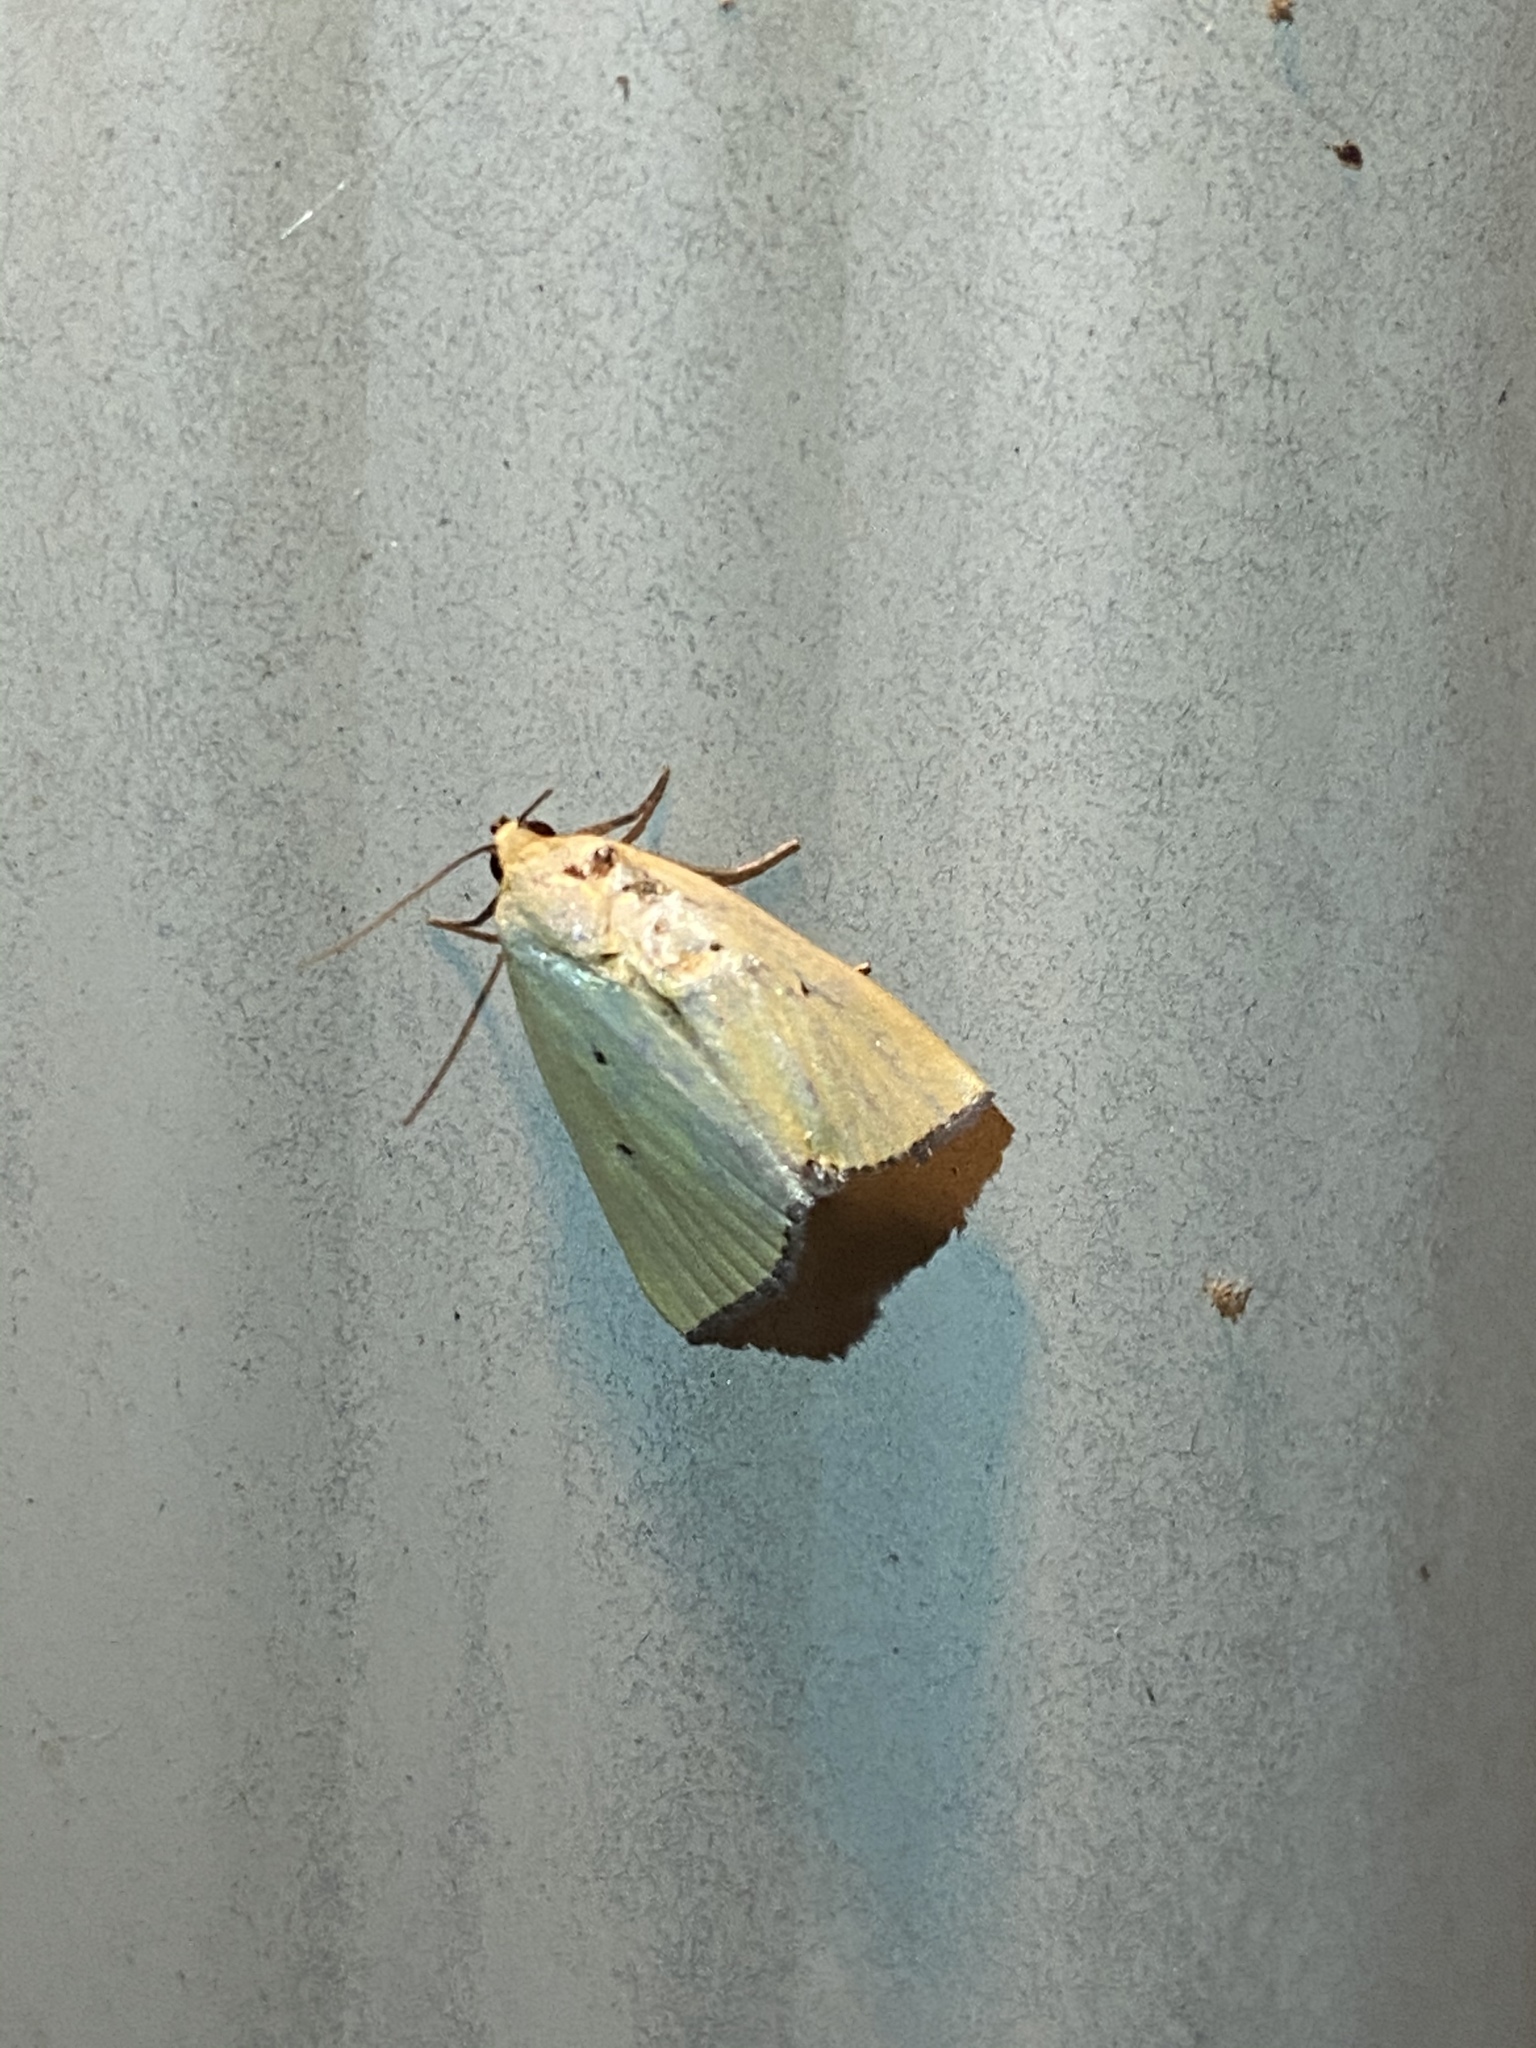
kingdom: Animalia
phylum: Arthropoda
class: Insecta
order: Lepidoptera
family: Noctuidae
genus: Marimatha
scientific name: Marimatha nigrofimbria
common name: Black-bordered lemon moth
